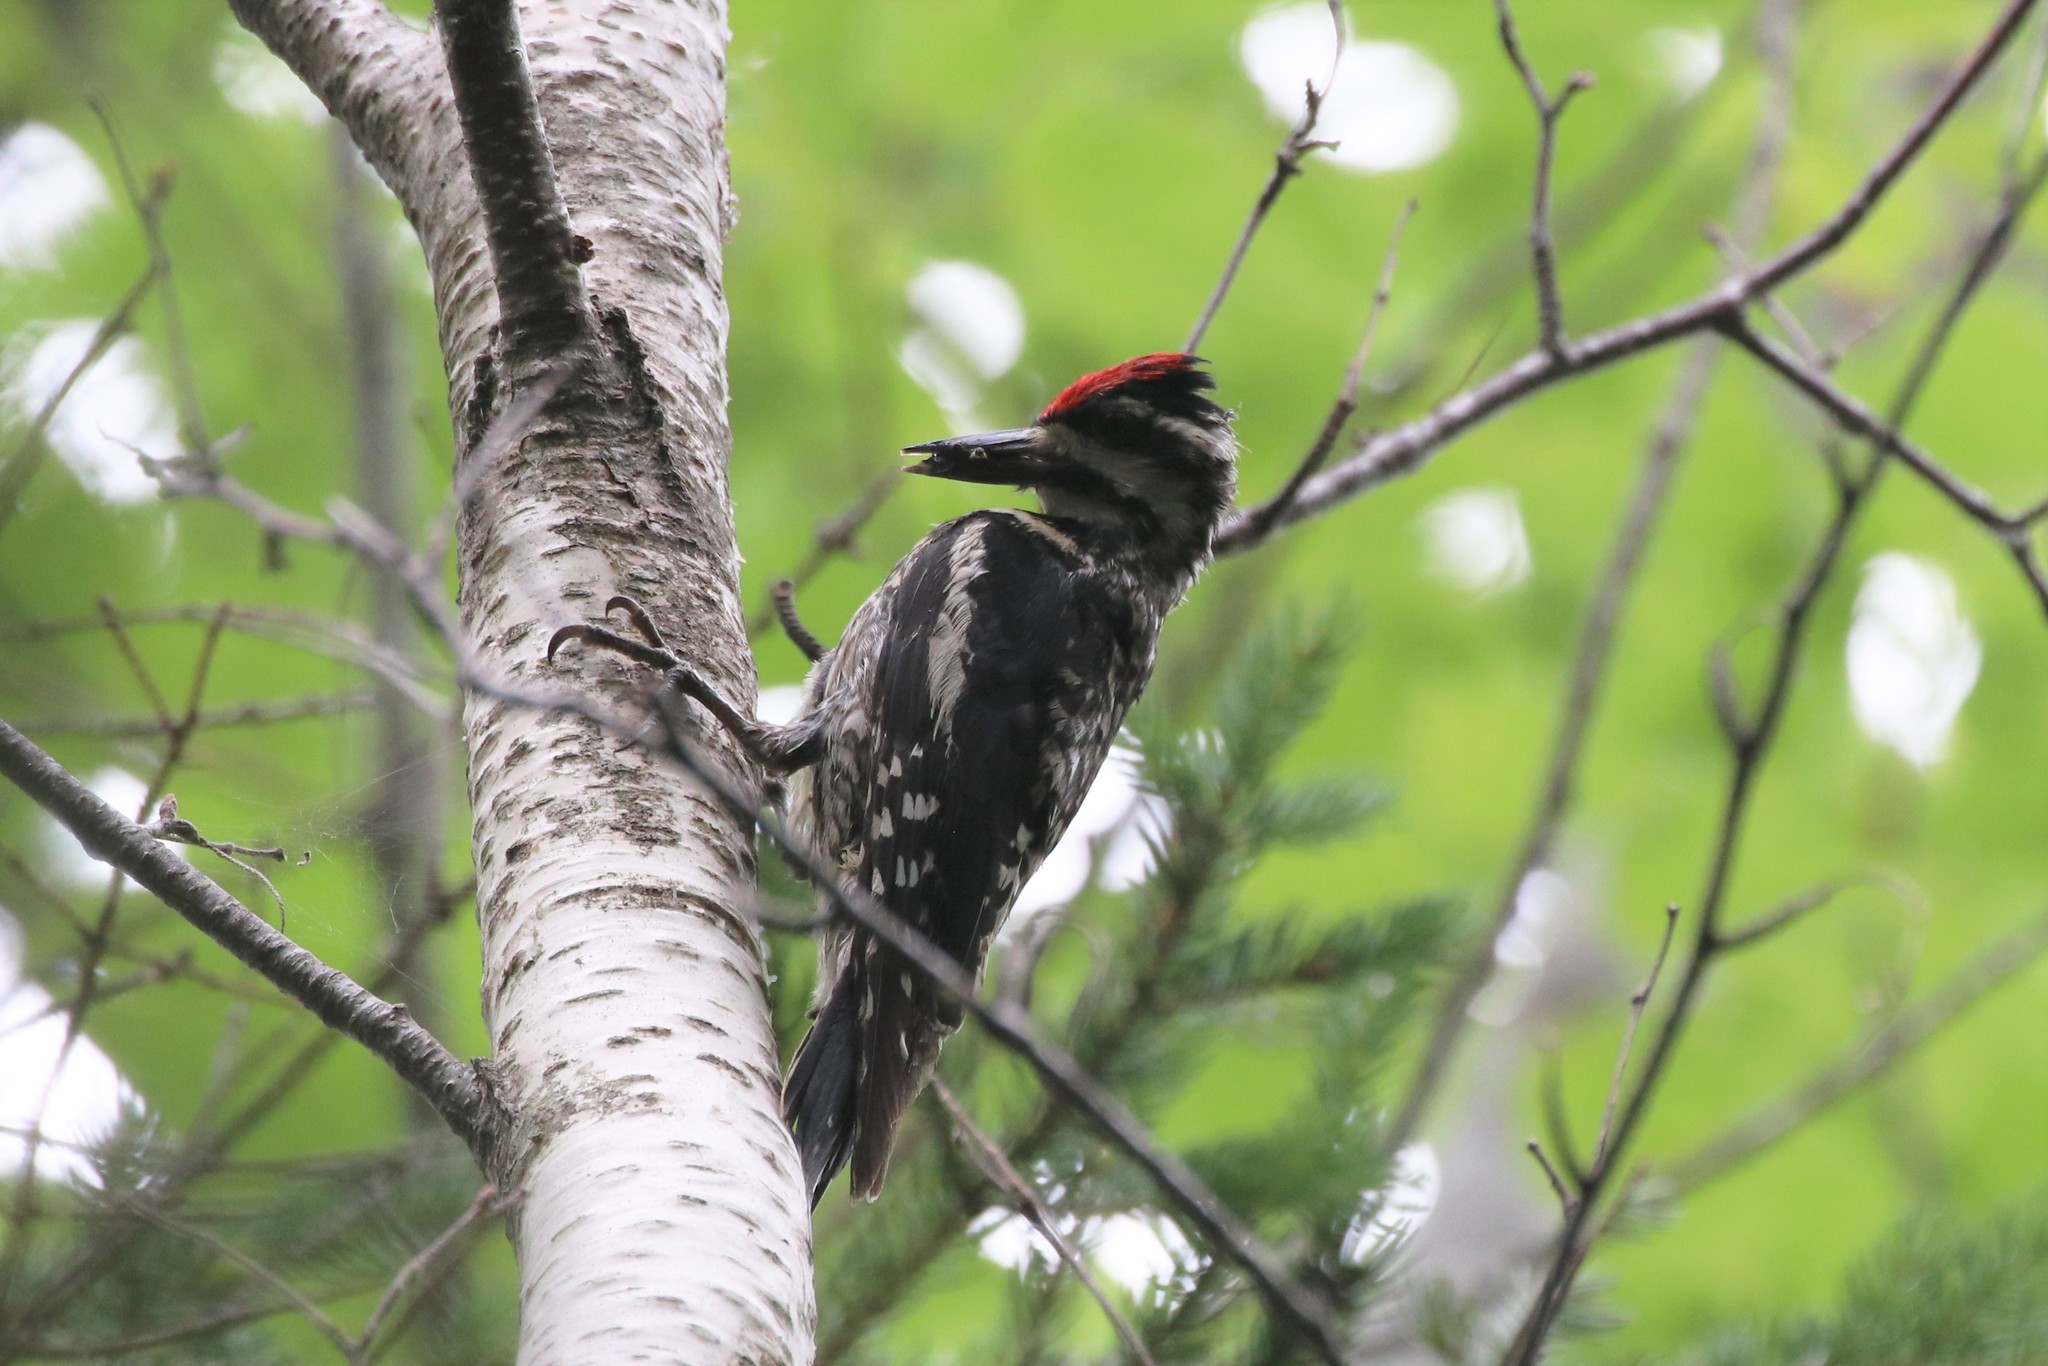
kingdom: Animalia
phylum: Chordata
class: Aves
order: Piciformes
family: Picidae
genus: Sphyrapicus
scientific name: Sphyrapicus varius
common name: Yellow-bellied sapsucker
